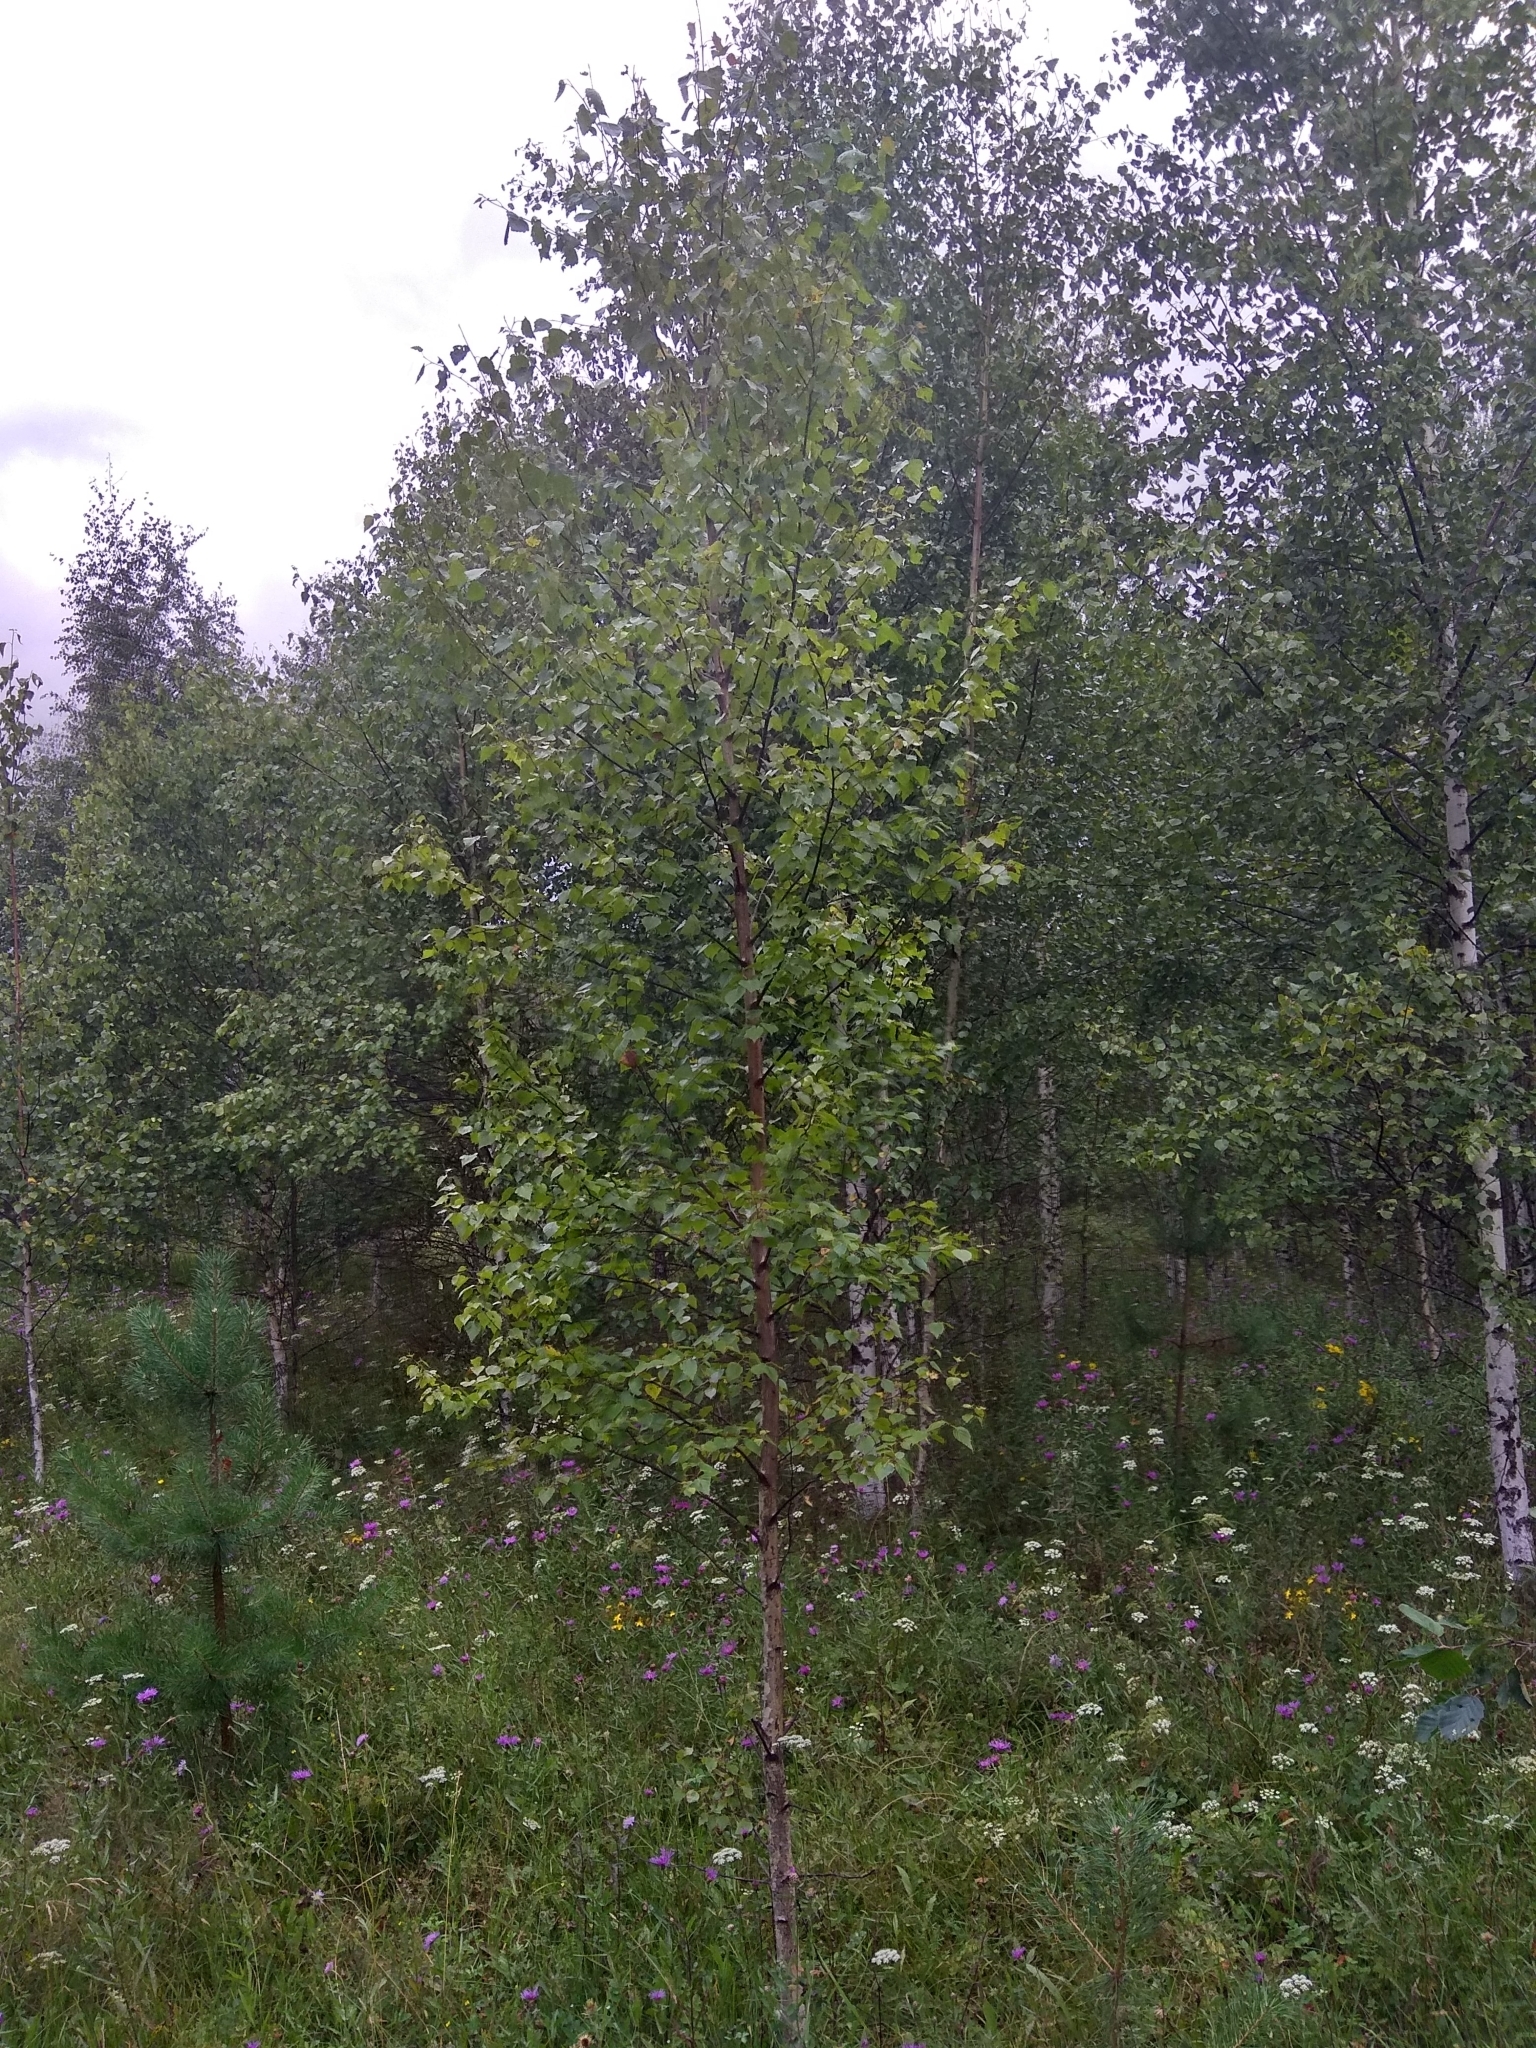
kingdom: Plantae
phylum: Tracheophyta
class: Magnoliopsida
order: Fagales
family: Betulaceae
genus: Betula
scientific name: Betula pendula
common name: Silver birch
